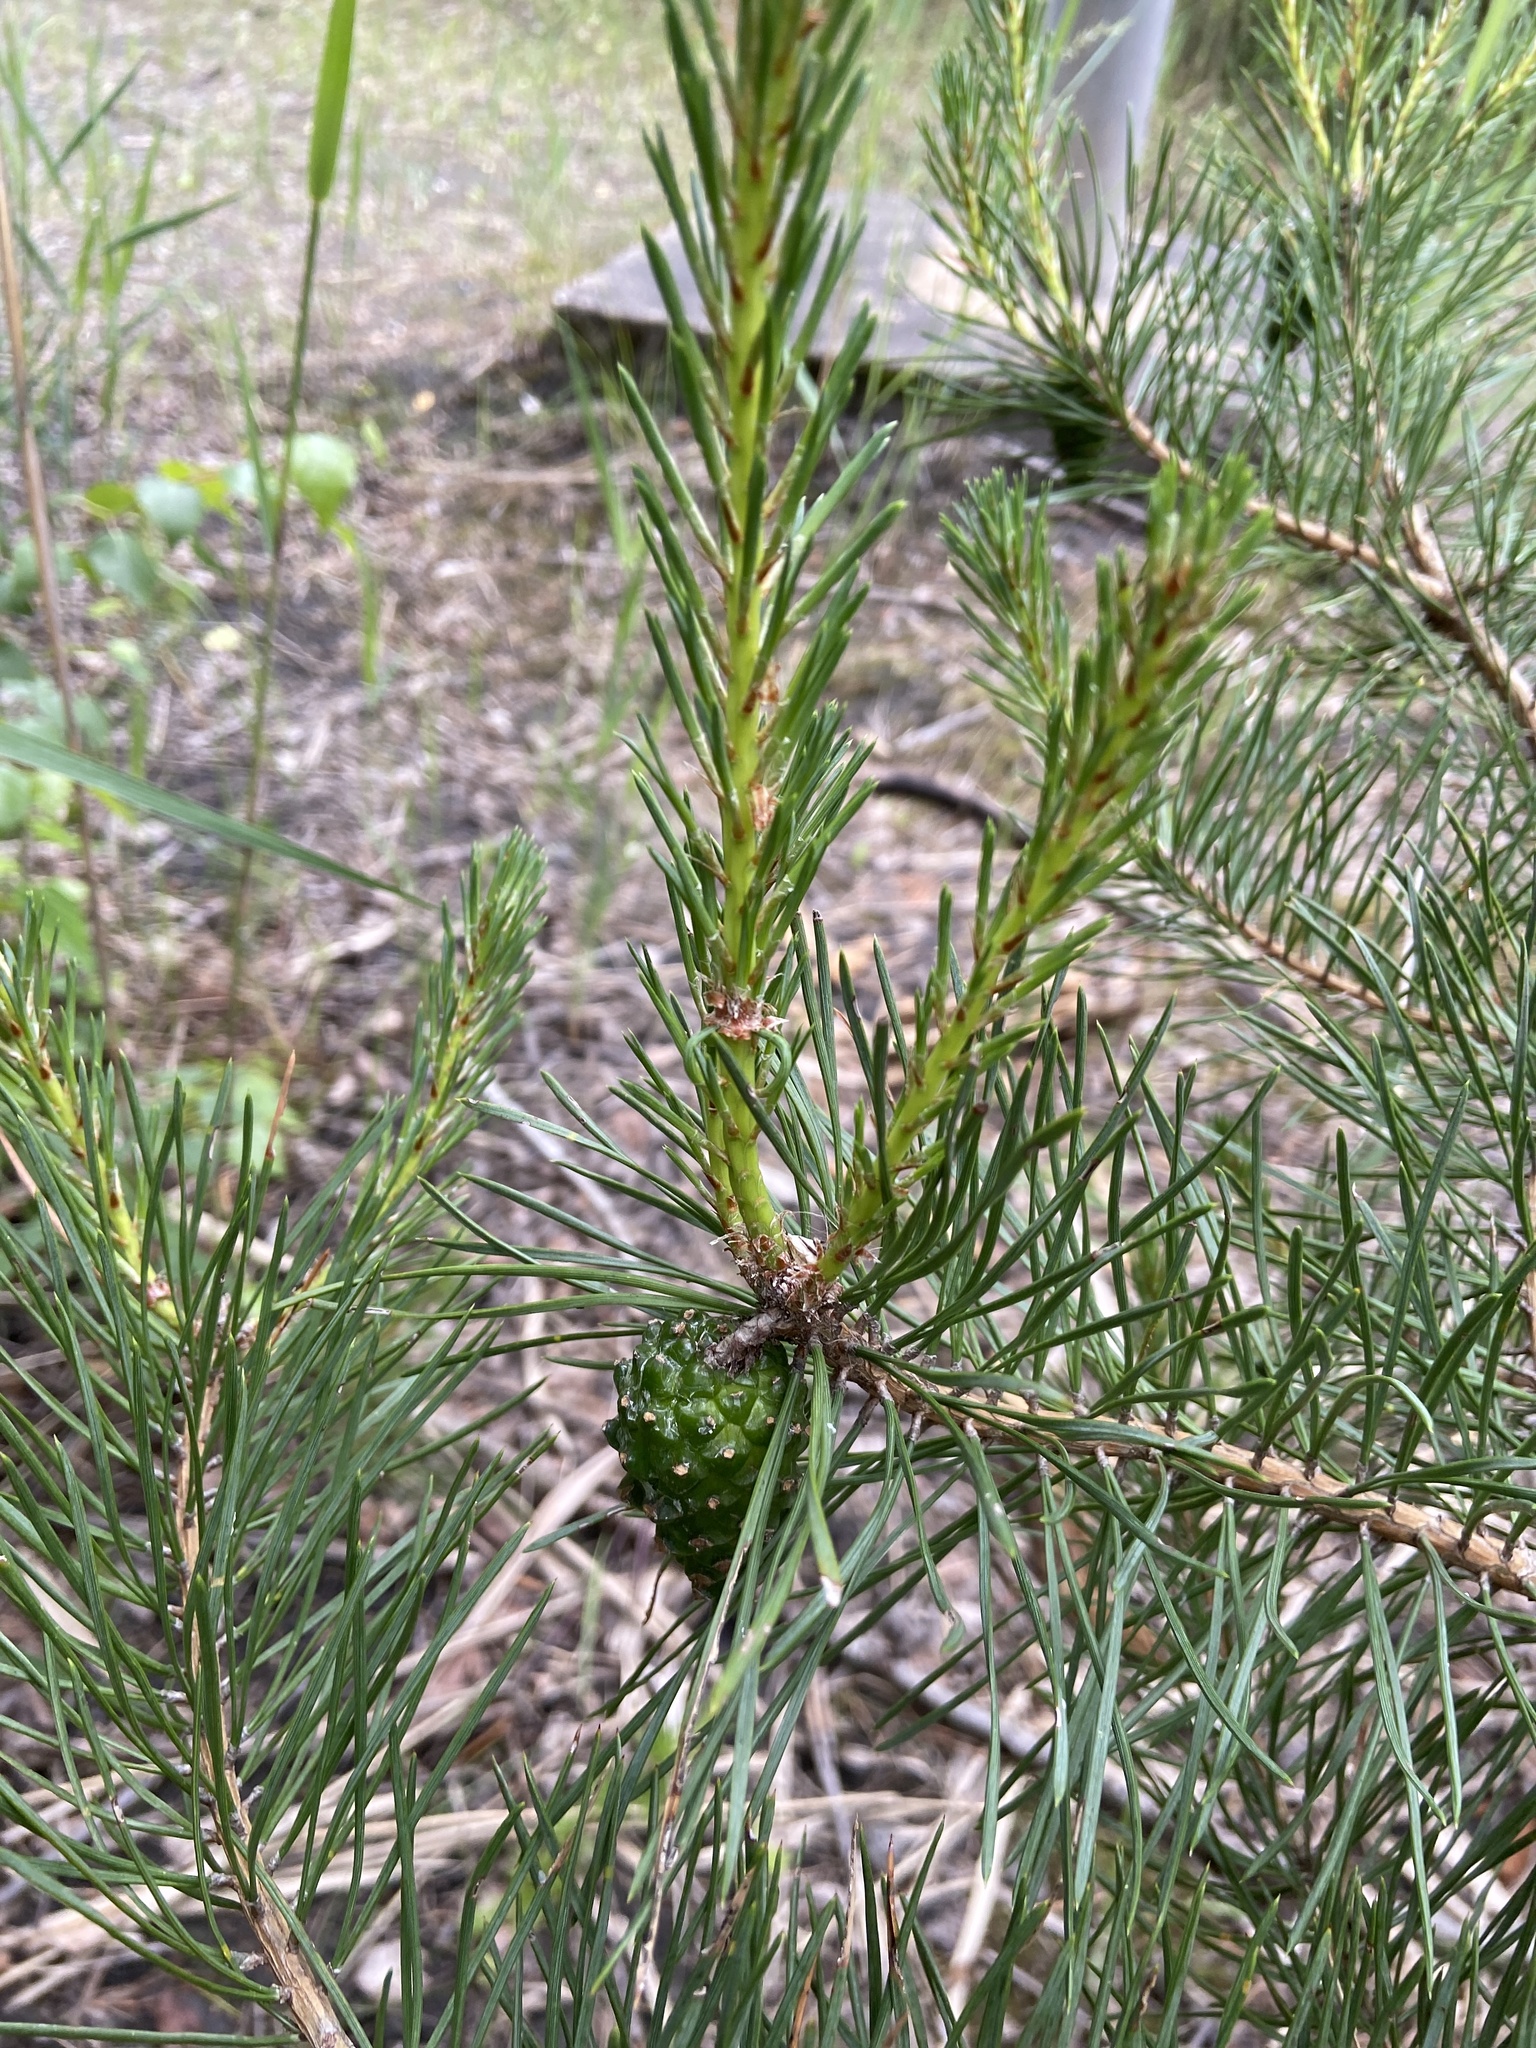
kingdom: Plantae
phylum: Tracheophyta
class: Pinopsida
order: Pinales
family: Pinaceae
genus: Pinus
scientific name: Pinus sylvestris
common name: Scots pine
